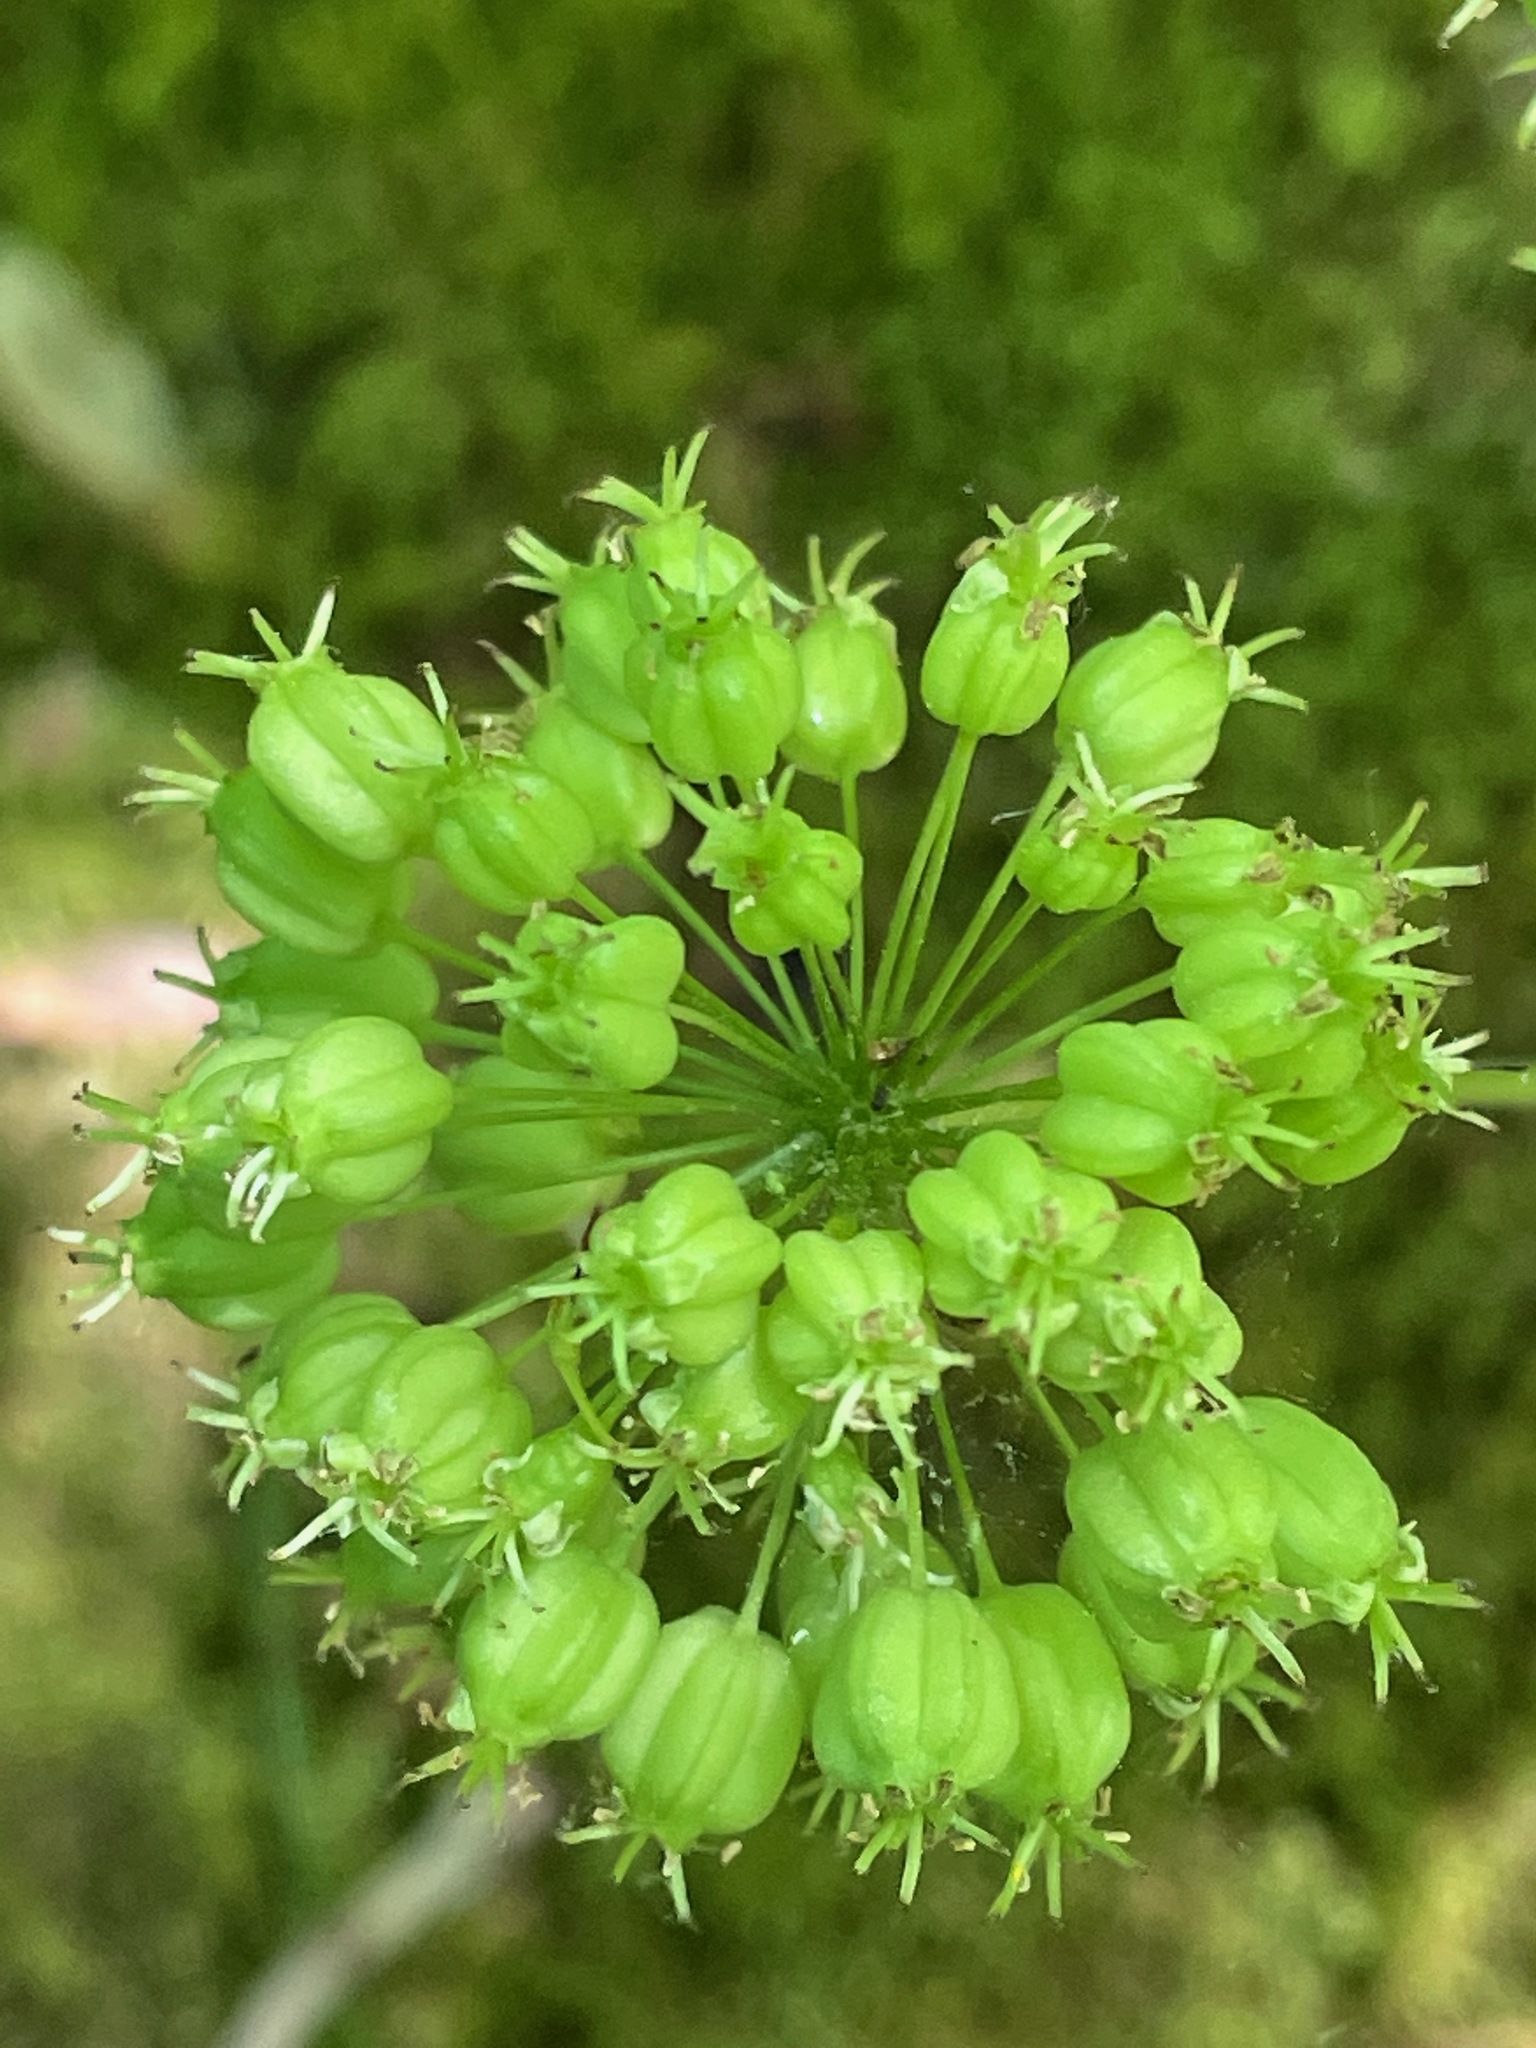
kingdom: Plantae
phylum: Tracheophyta
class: Magnoliopsida
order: Apiales
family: Araliaceae
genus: Aralia
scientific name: Aralia nudicaulis
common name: Wild sarsaparilla
